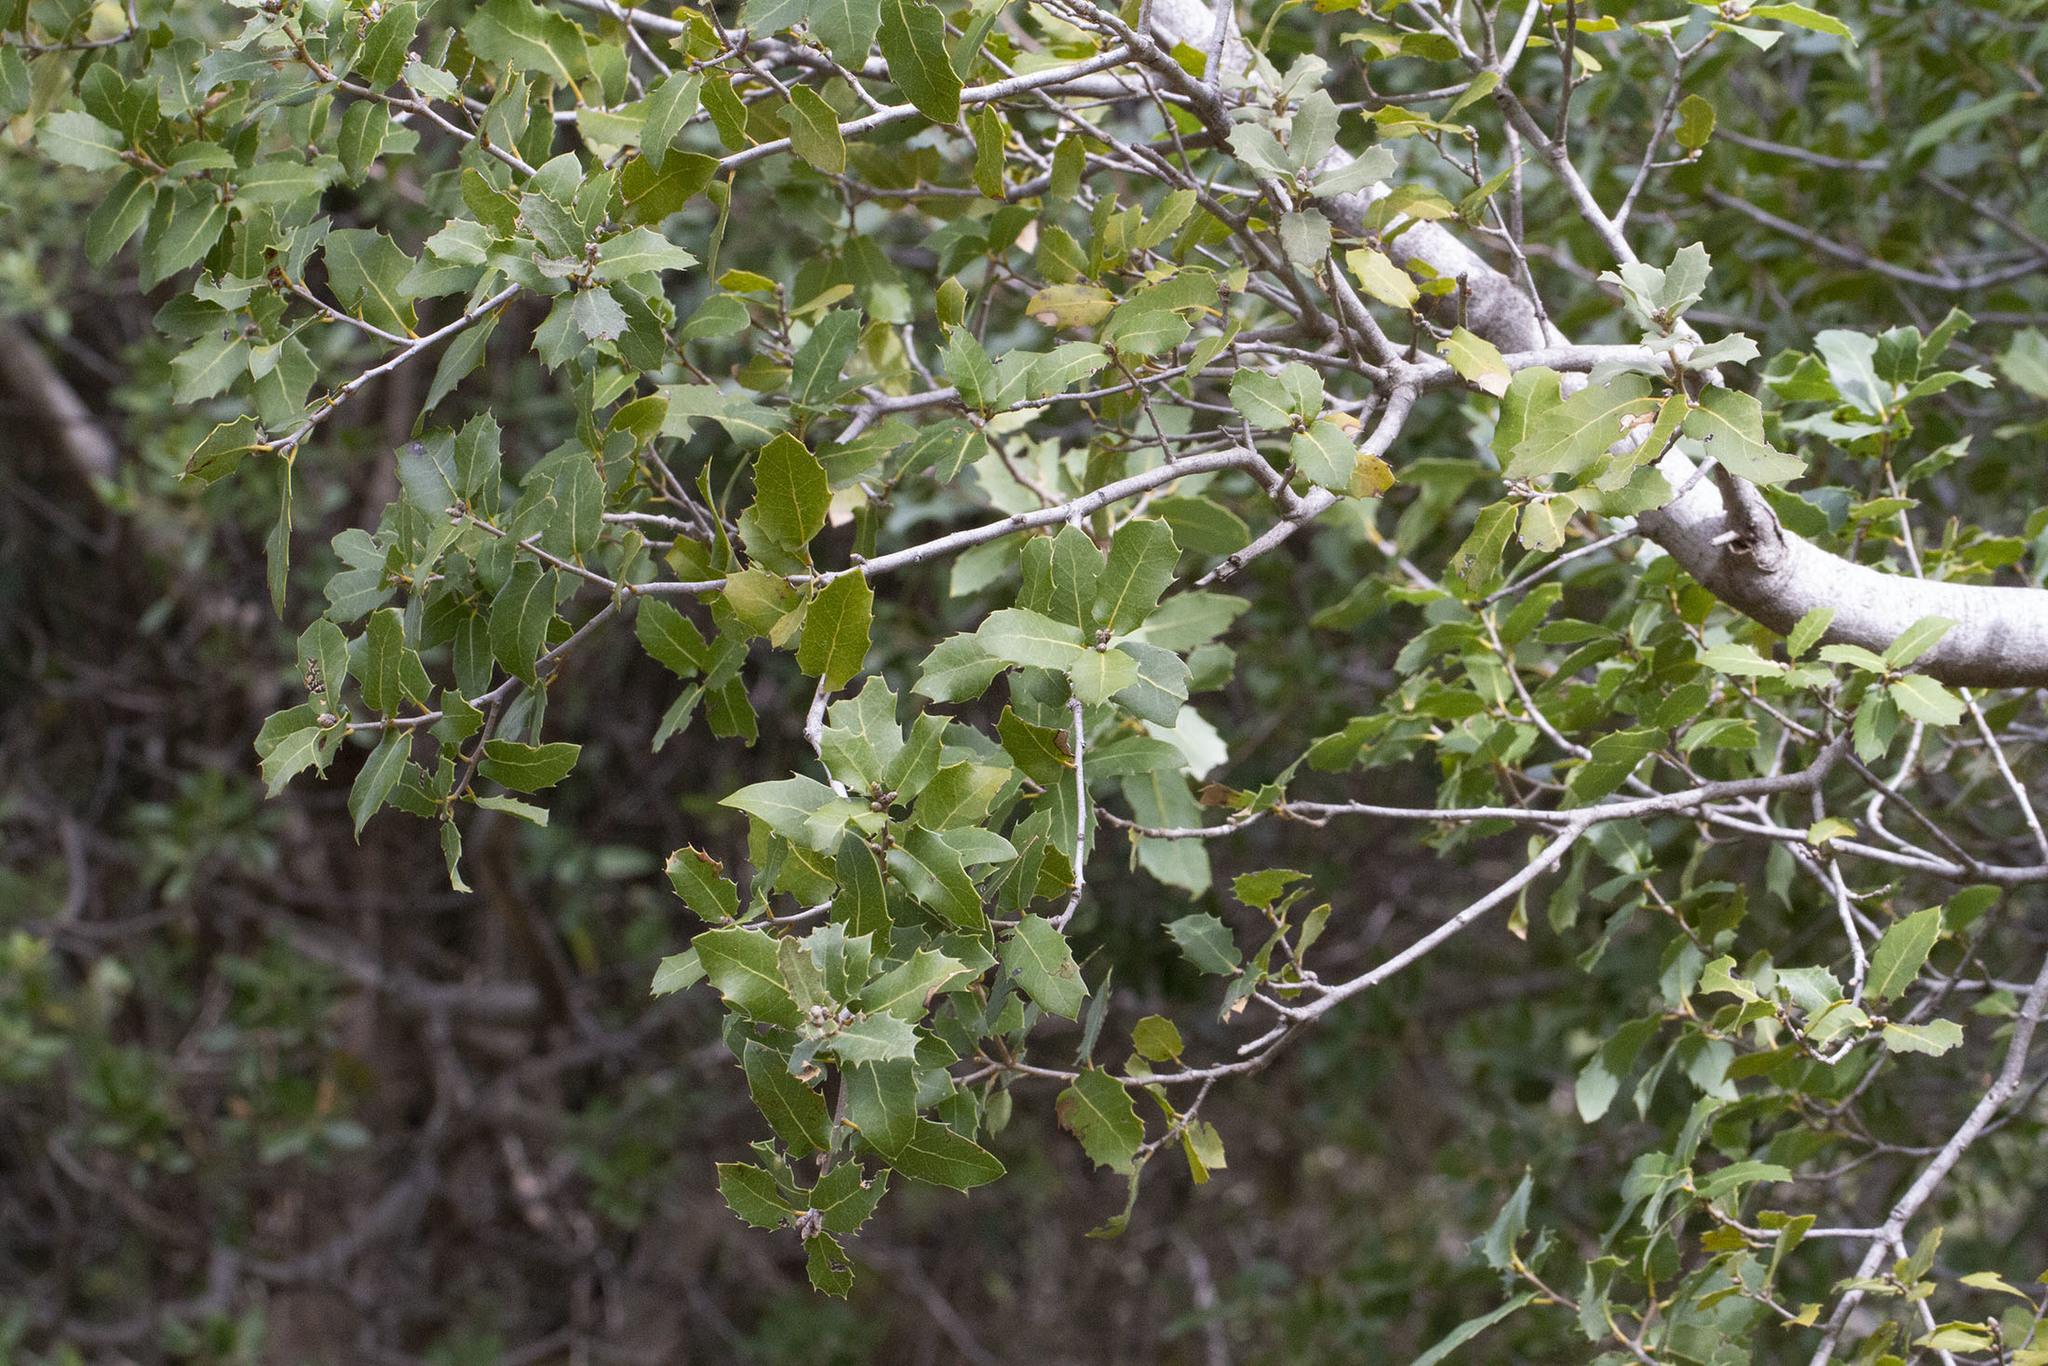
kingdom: Plantae
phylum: Tracheophyta
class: Magnoliopsida
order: Fagales
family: Fagaceae
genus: Quercus
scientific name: Quercus coccifera
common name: Kermes oak
